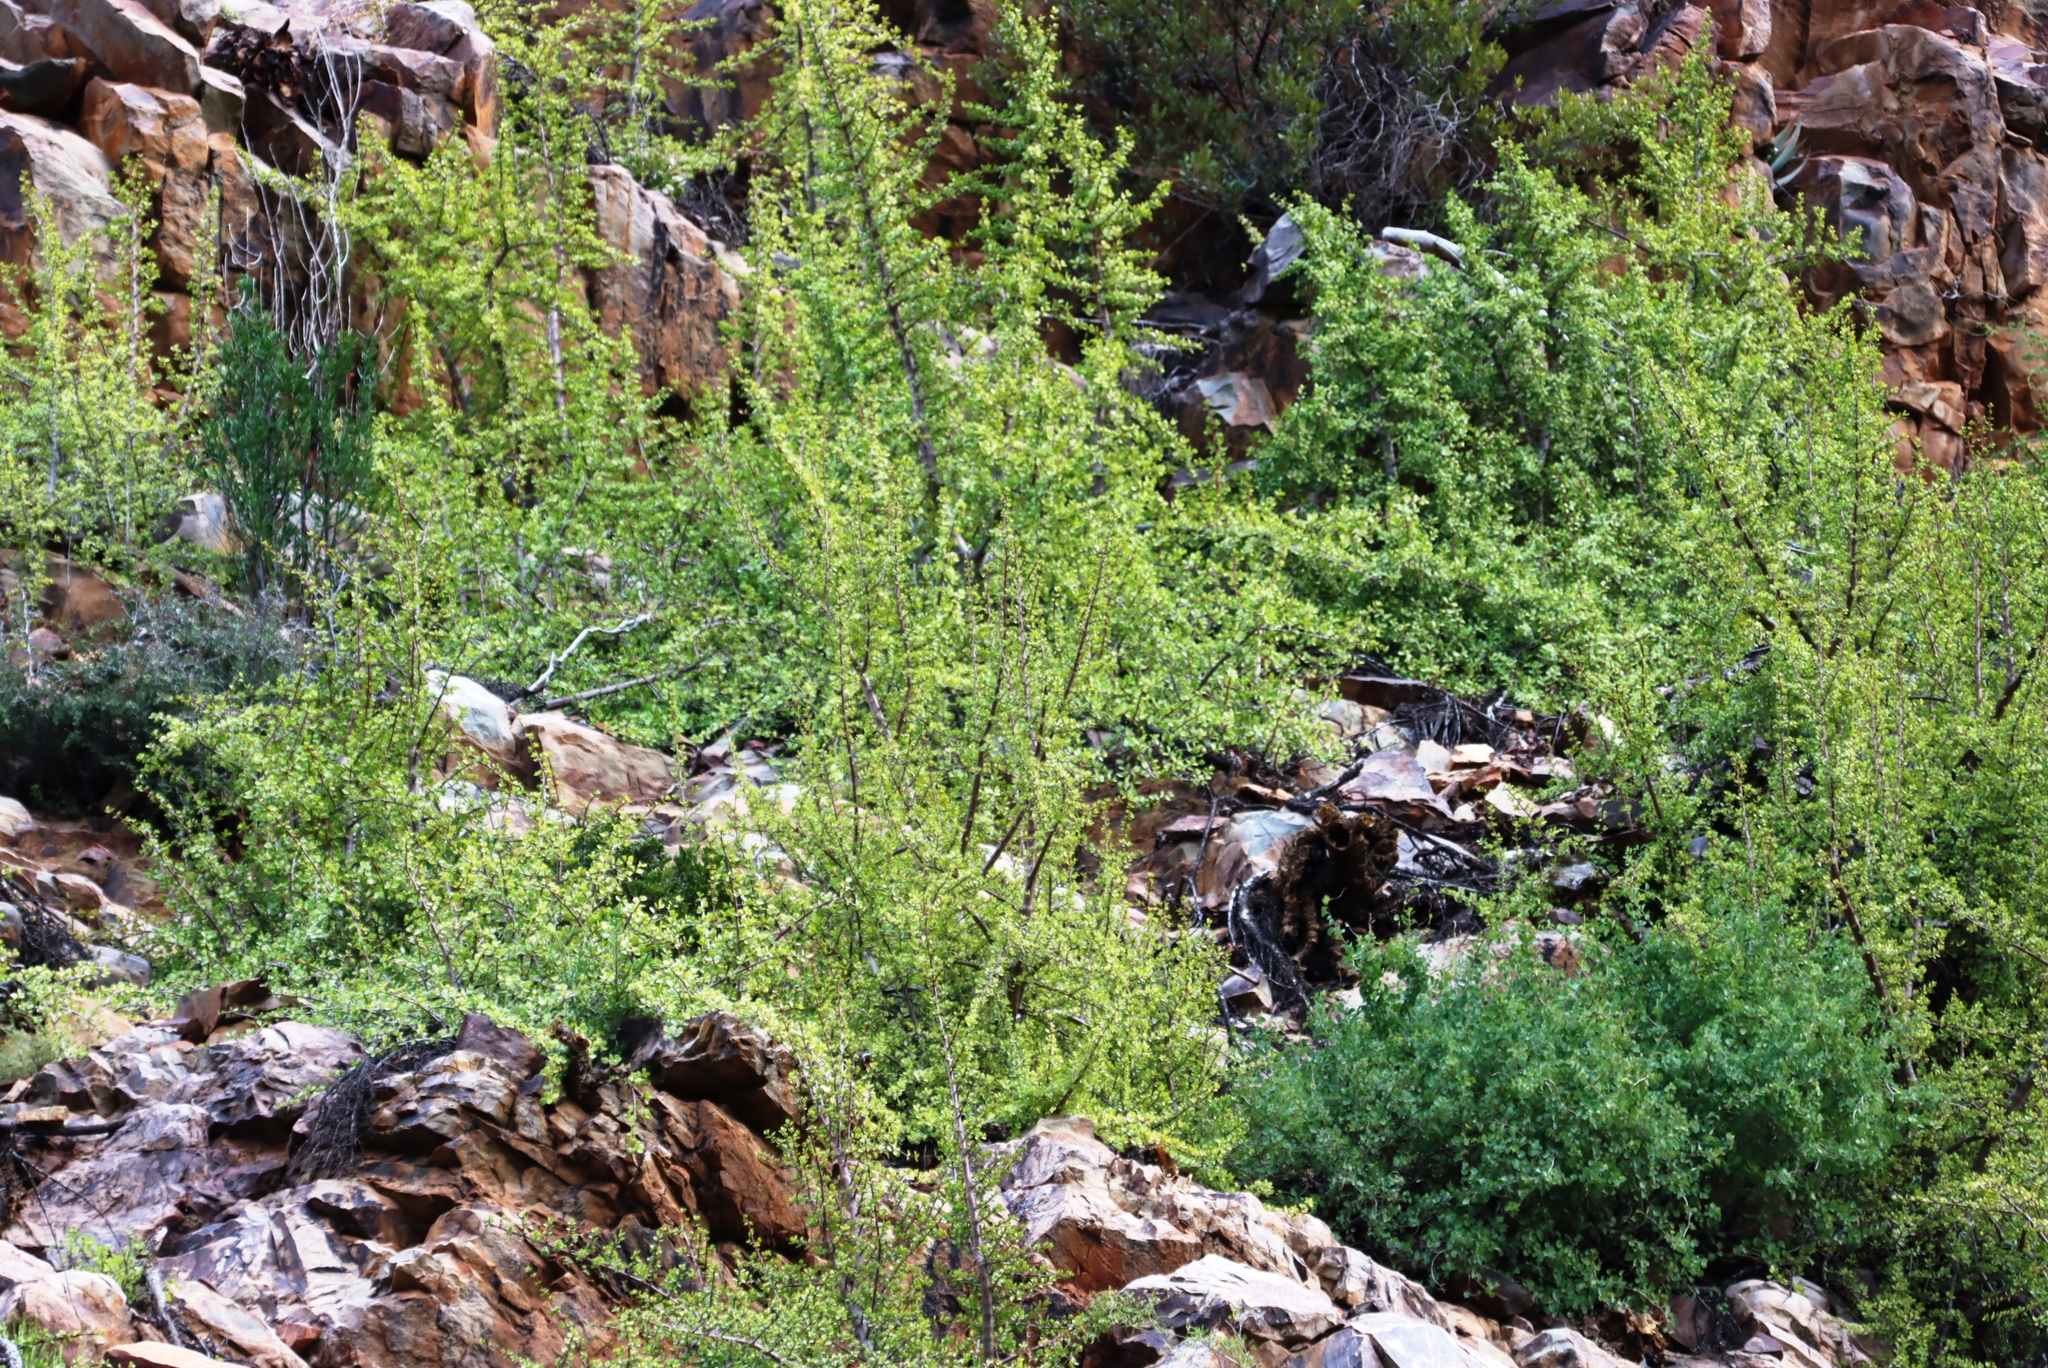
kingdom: Plantae
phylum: Tracheophyta
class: Magnoliopsida
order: Caryophyllales
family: Didiereaceae
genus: Portulacaria
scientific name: Portulacaria afra
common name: Elephant-bush
